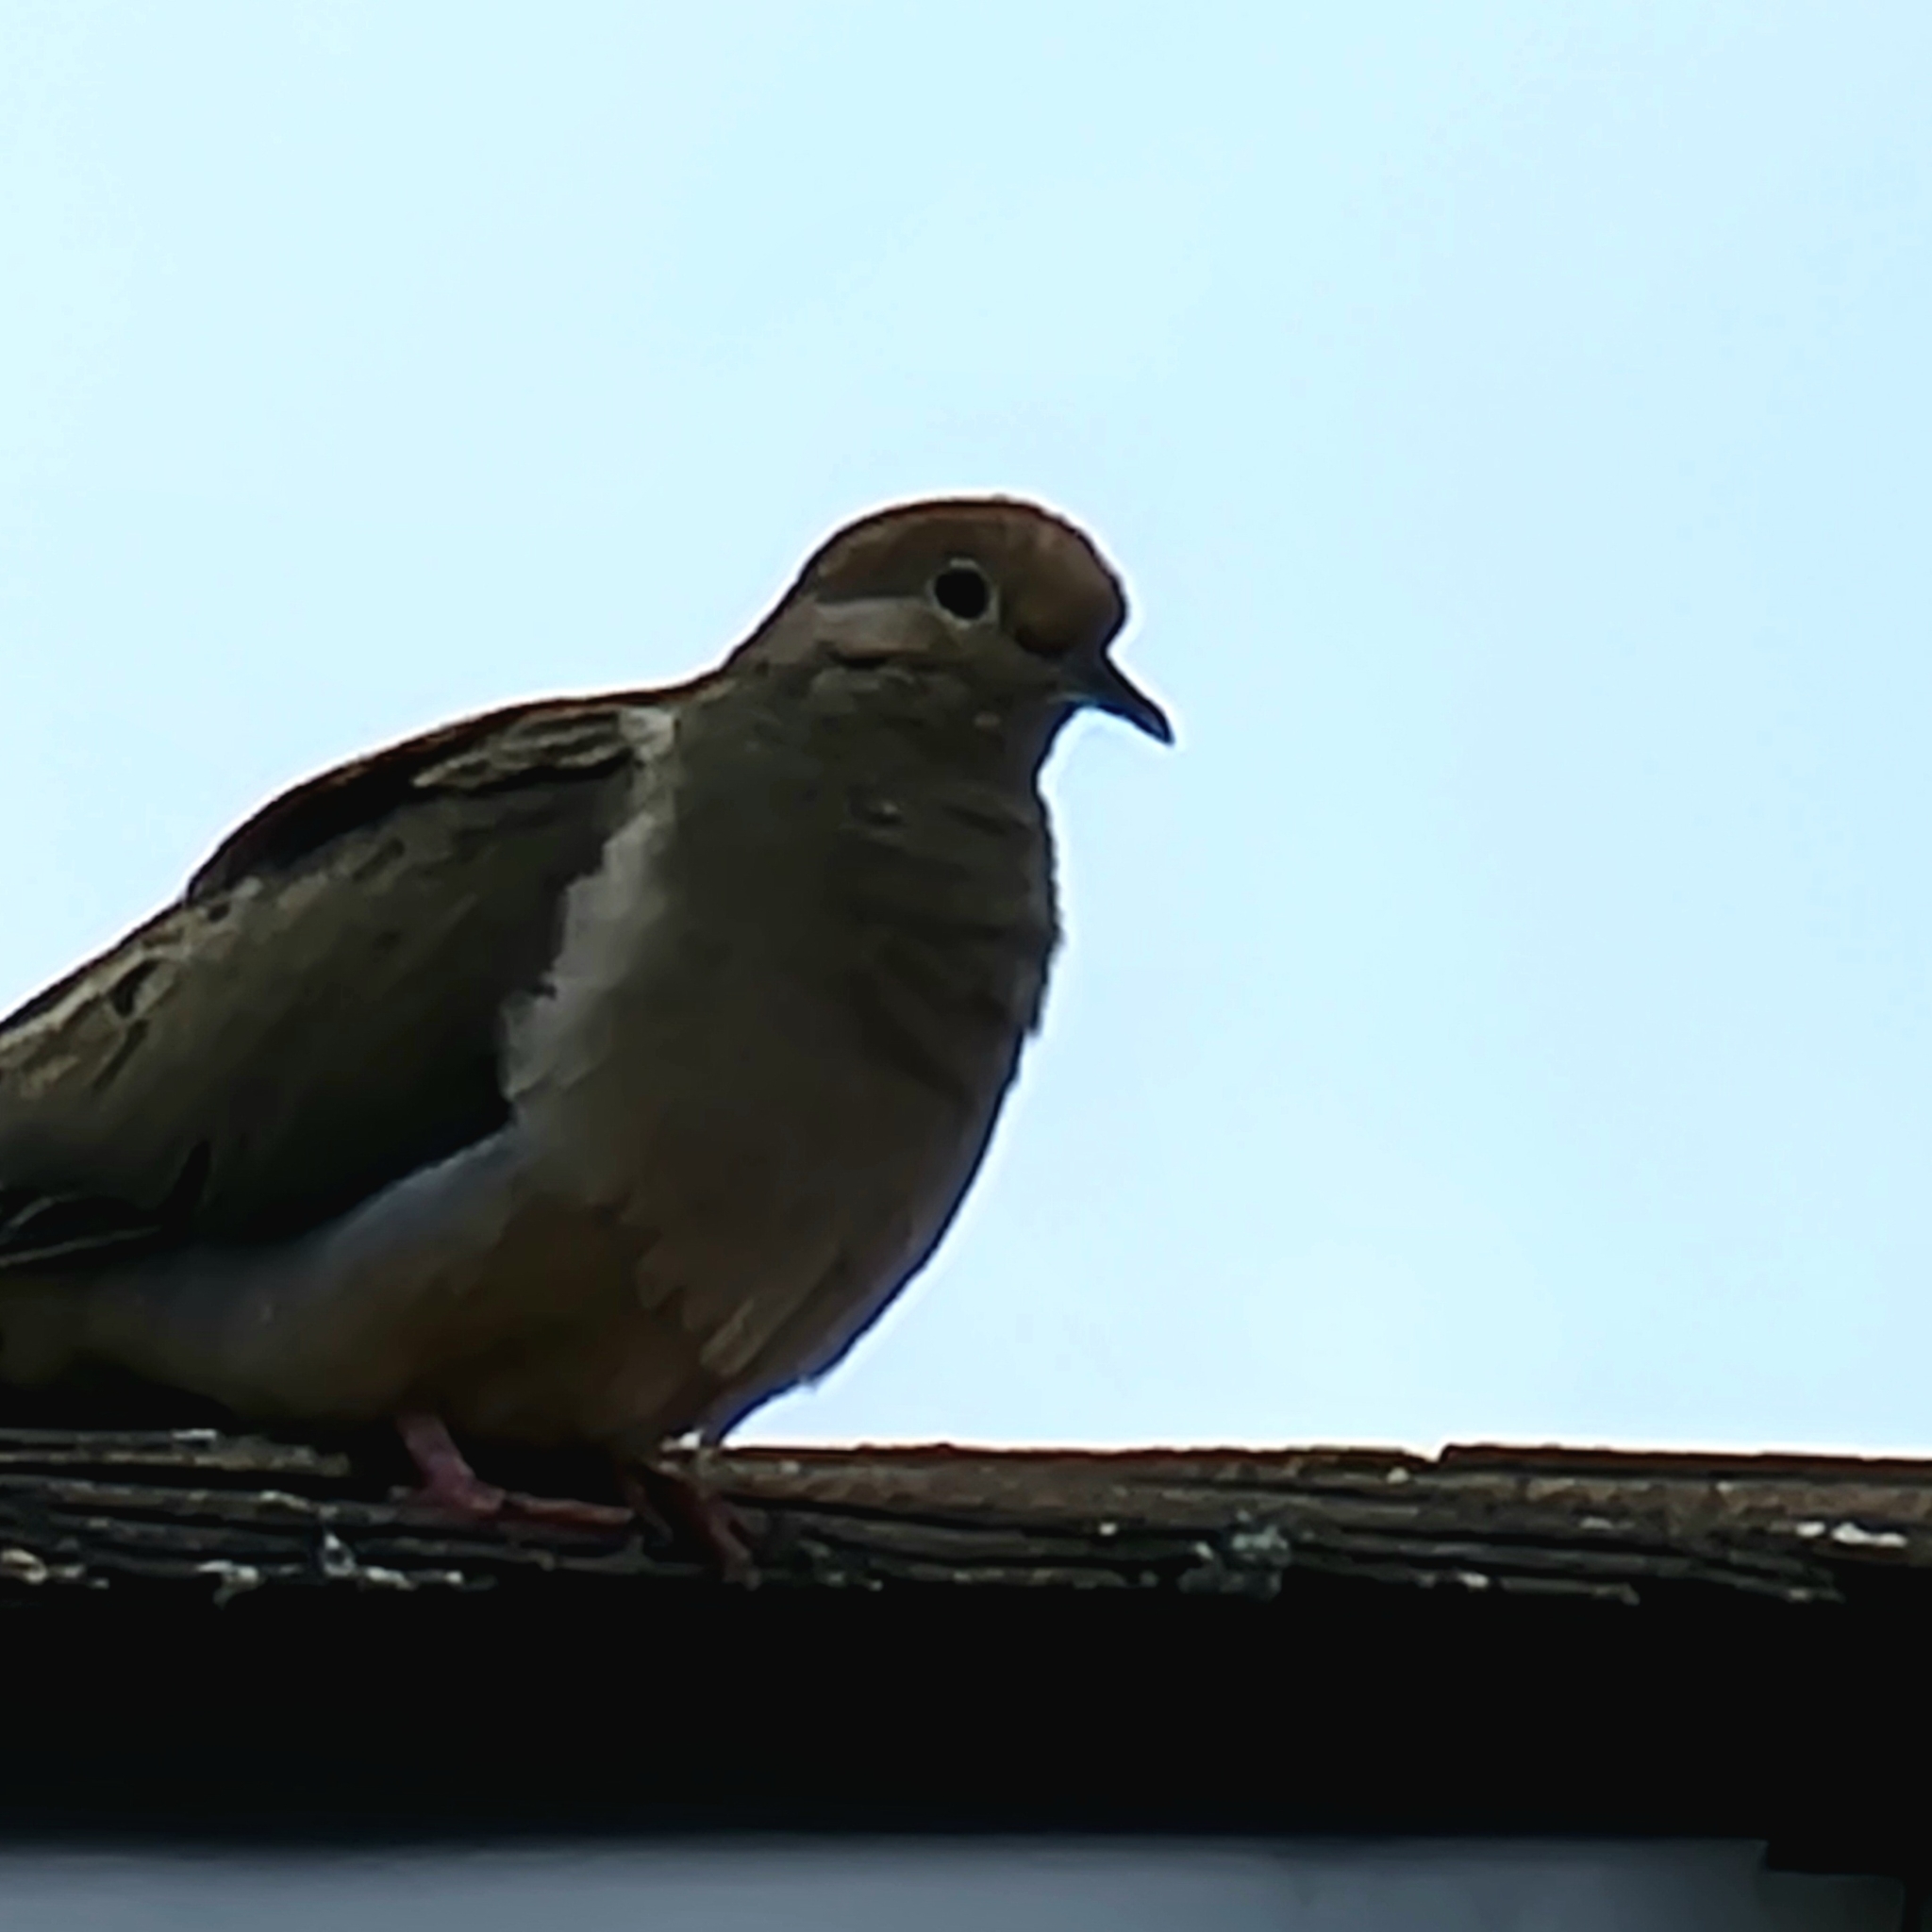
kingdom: Animalia
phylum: Chordata
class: Aves
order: Columbiformes
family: Columbidae
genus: Zenaida
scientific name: Zenaida macroura
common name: Mourning dove
